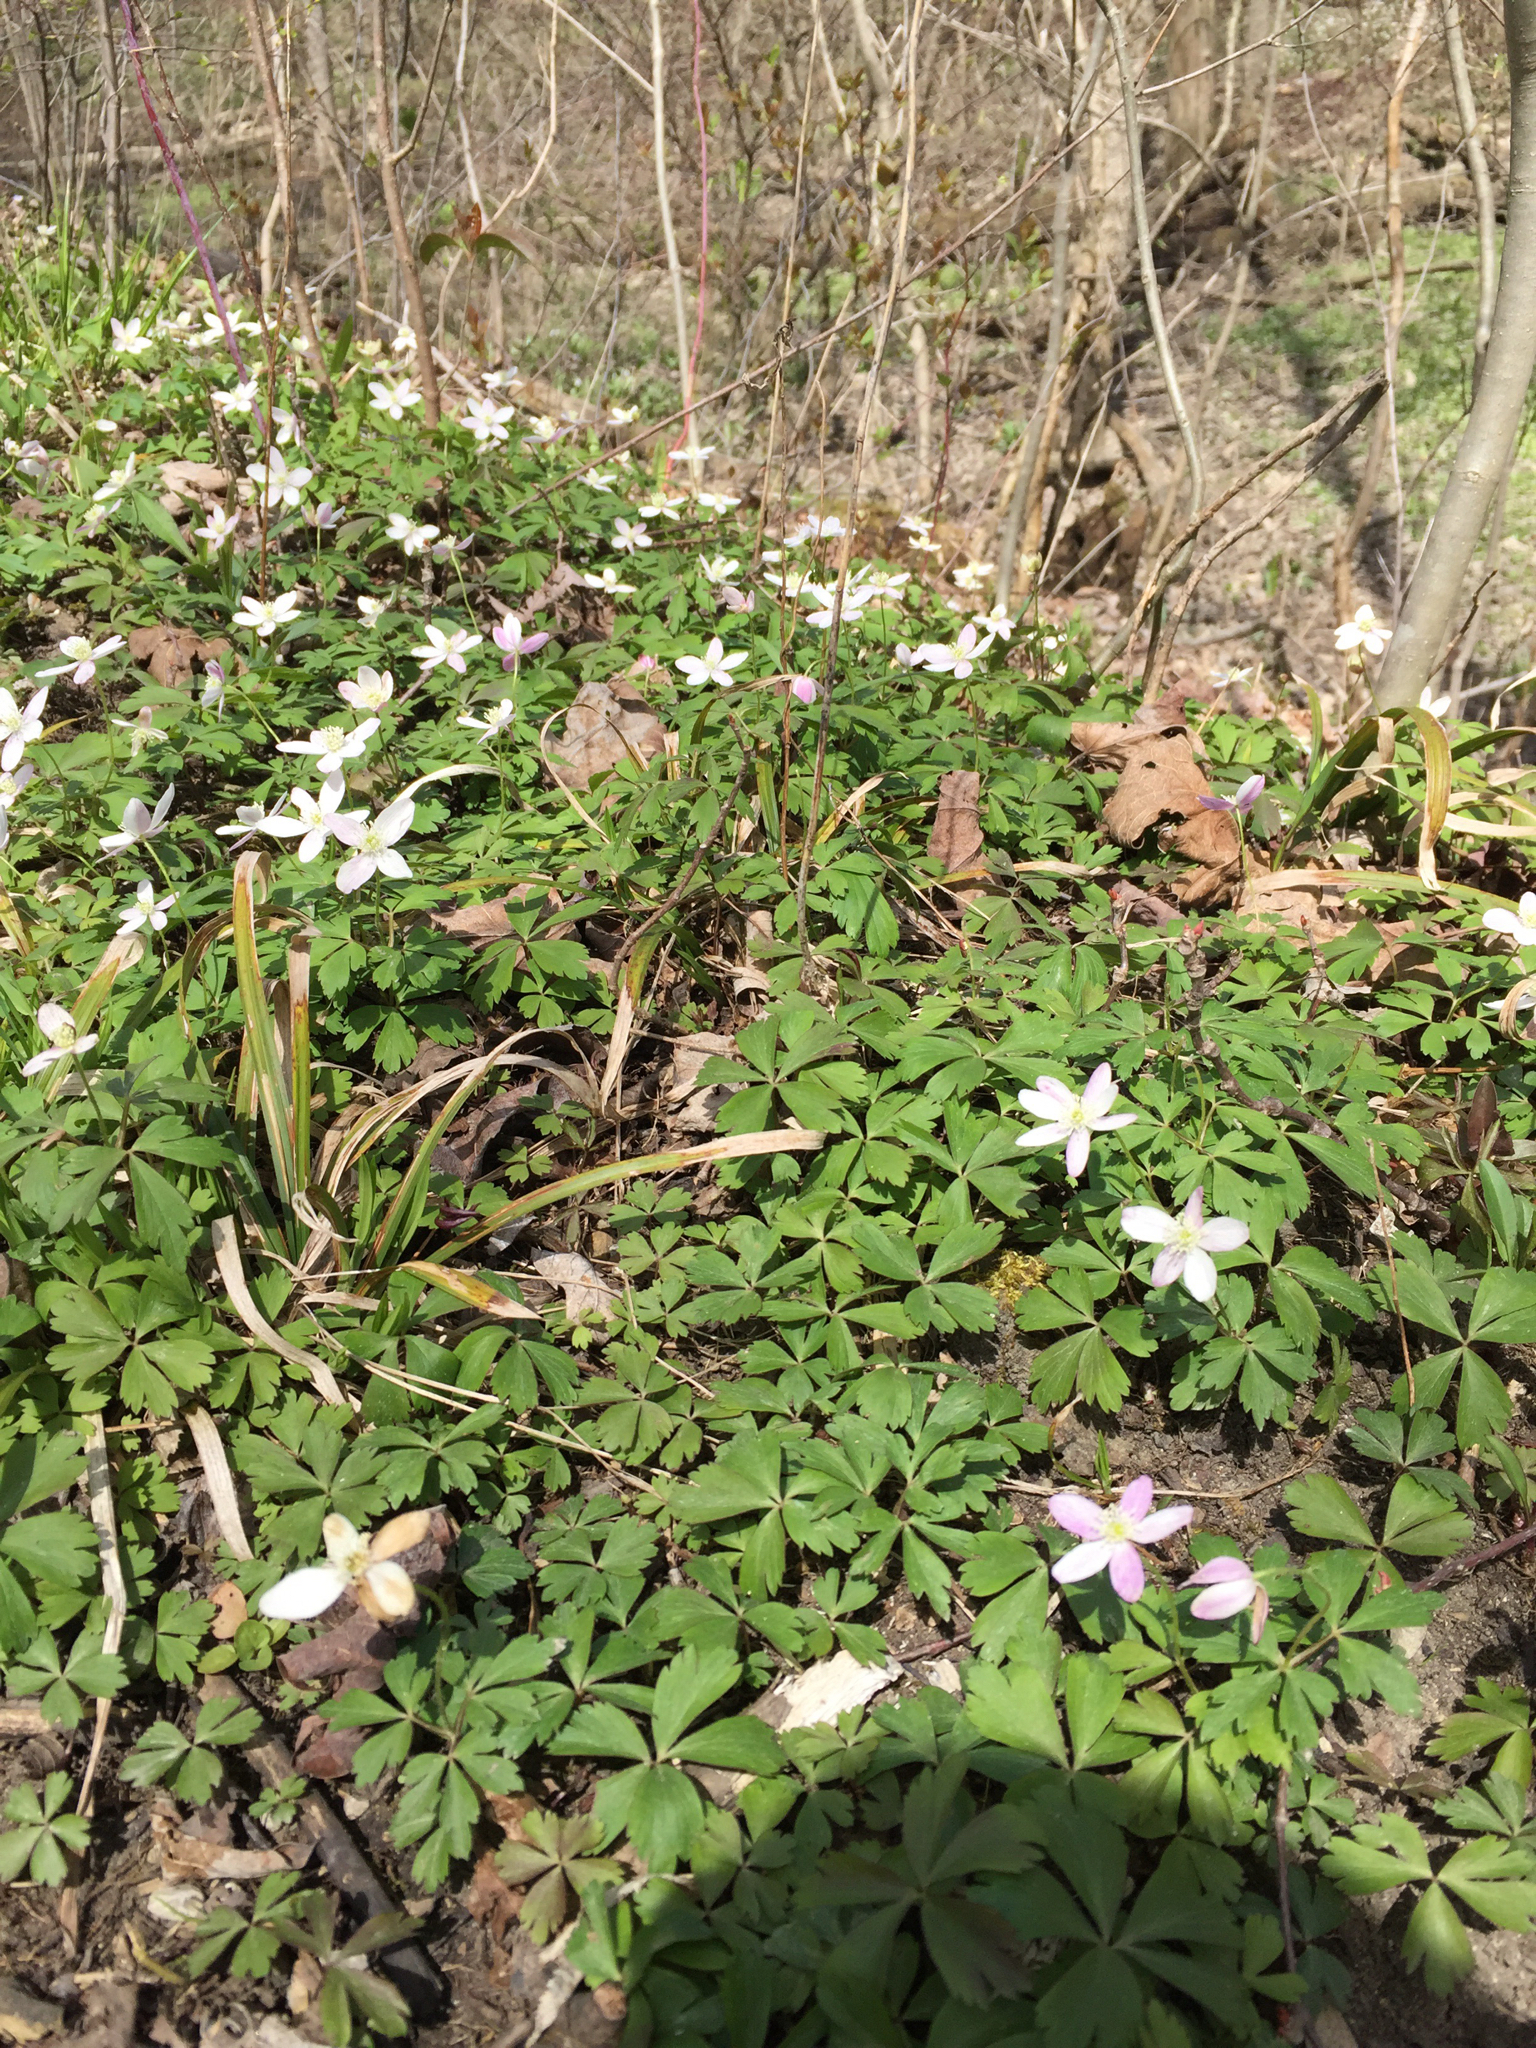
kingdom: Plantae
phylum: Tracheophyta
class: Magnoliopsida
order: Ranunculales
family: Ranunculaceae
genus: Anemone
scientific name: Anemone quinquefolia
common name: Wood anemone
